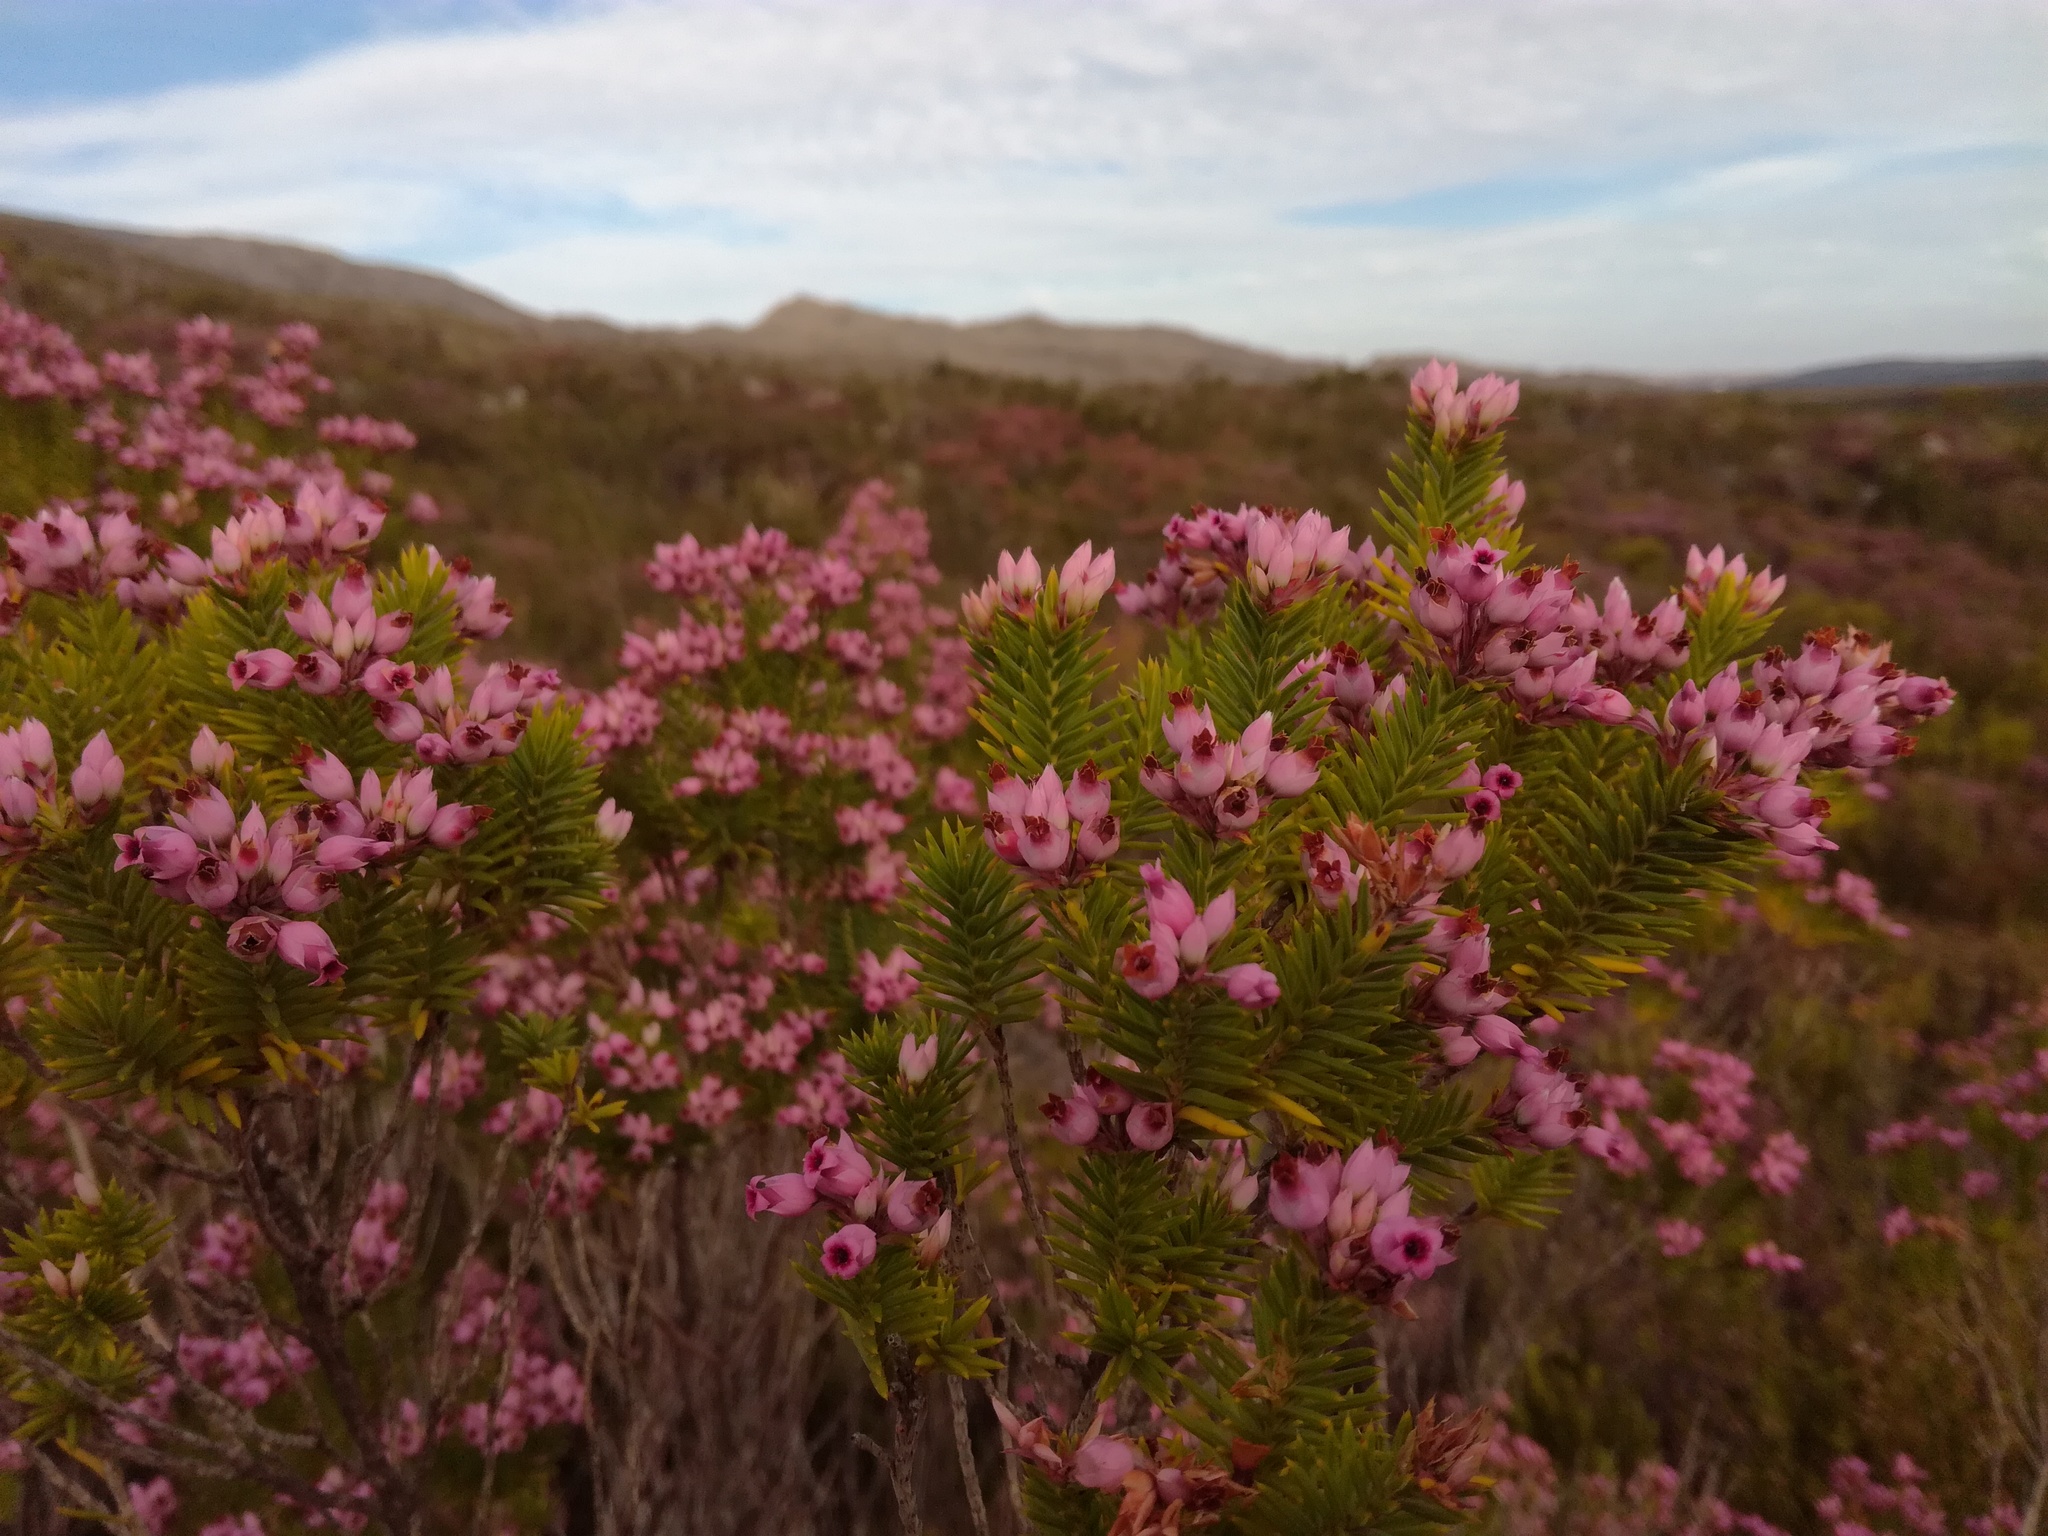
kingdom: Plantae
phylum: Tracheophyta
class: Magnoliopsida
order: Ericales
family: Ericaceae
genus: Erica
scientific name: Erica taxifolia
